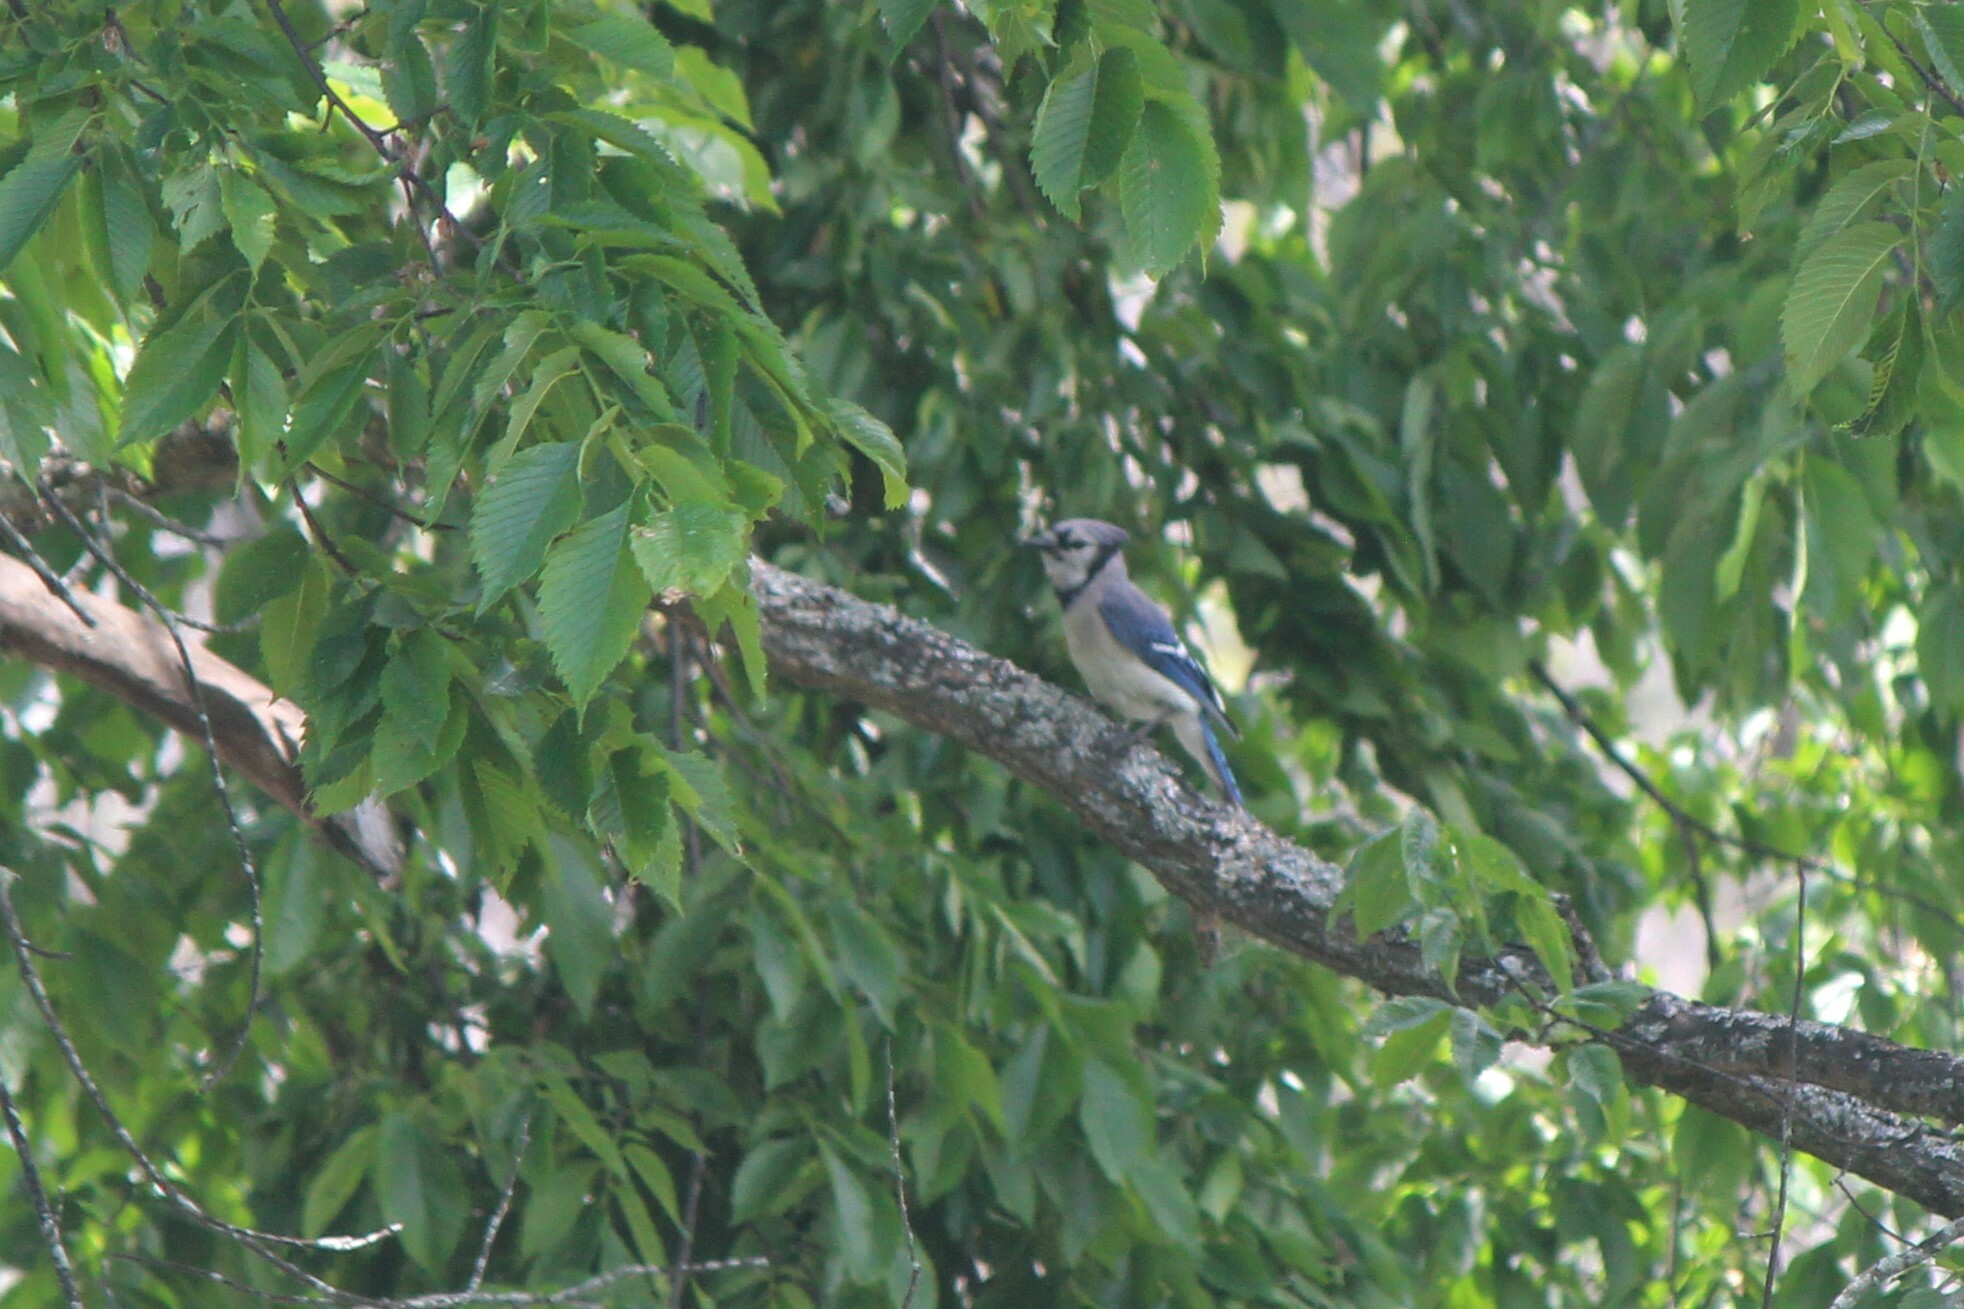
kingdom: Animalia
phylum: Chordata
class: Aves
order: Passeriformes
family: Corvidae
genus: Cyanocitta
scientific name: Cyanocitta cristata
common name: Blue jay
